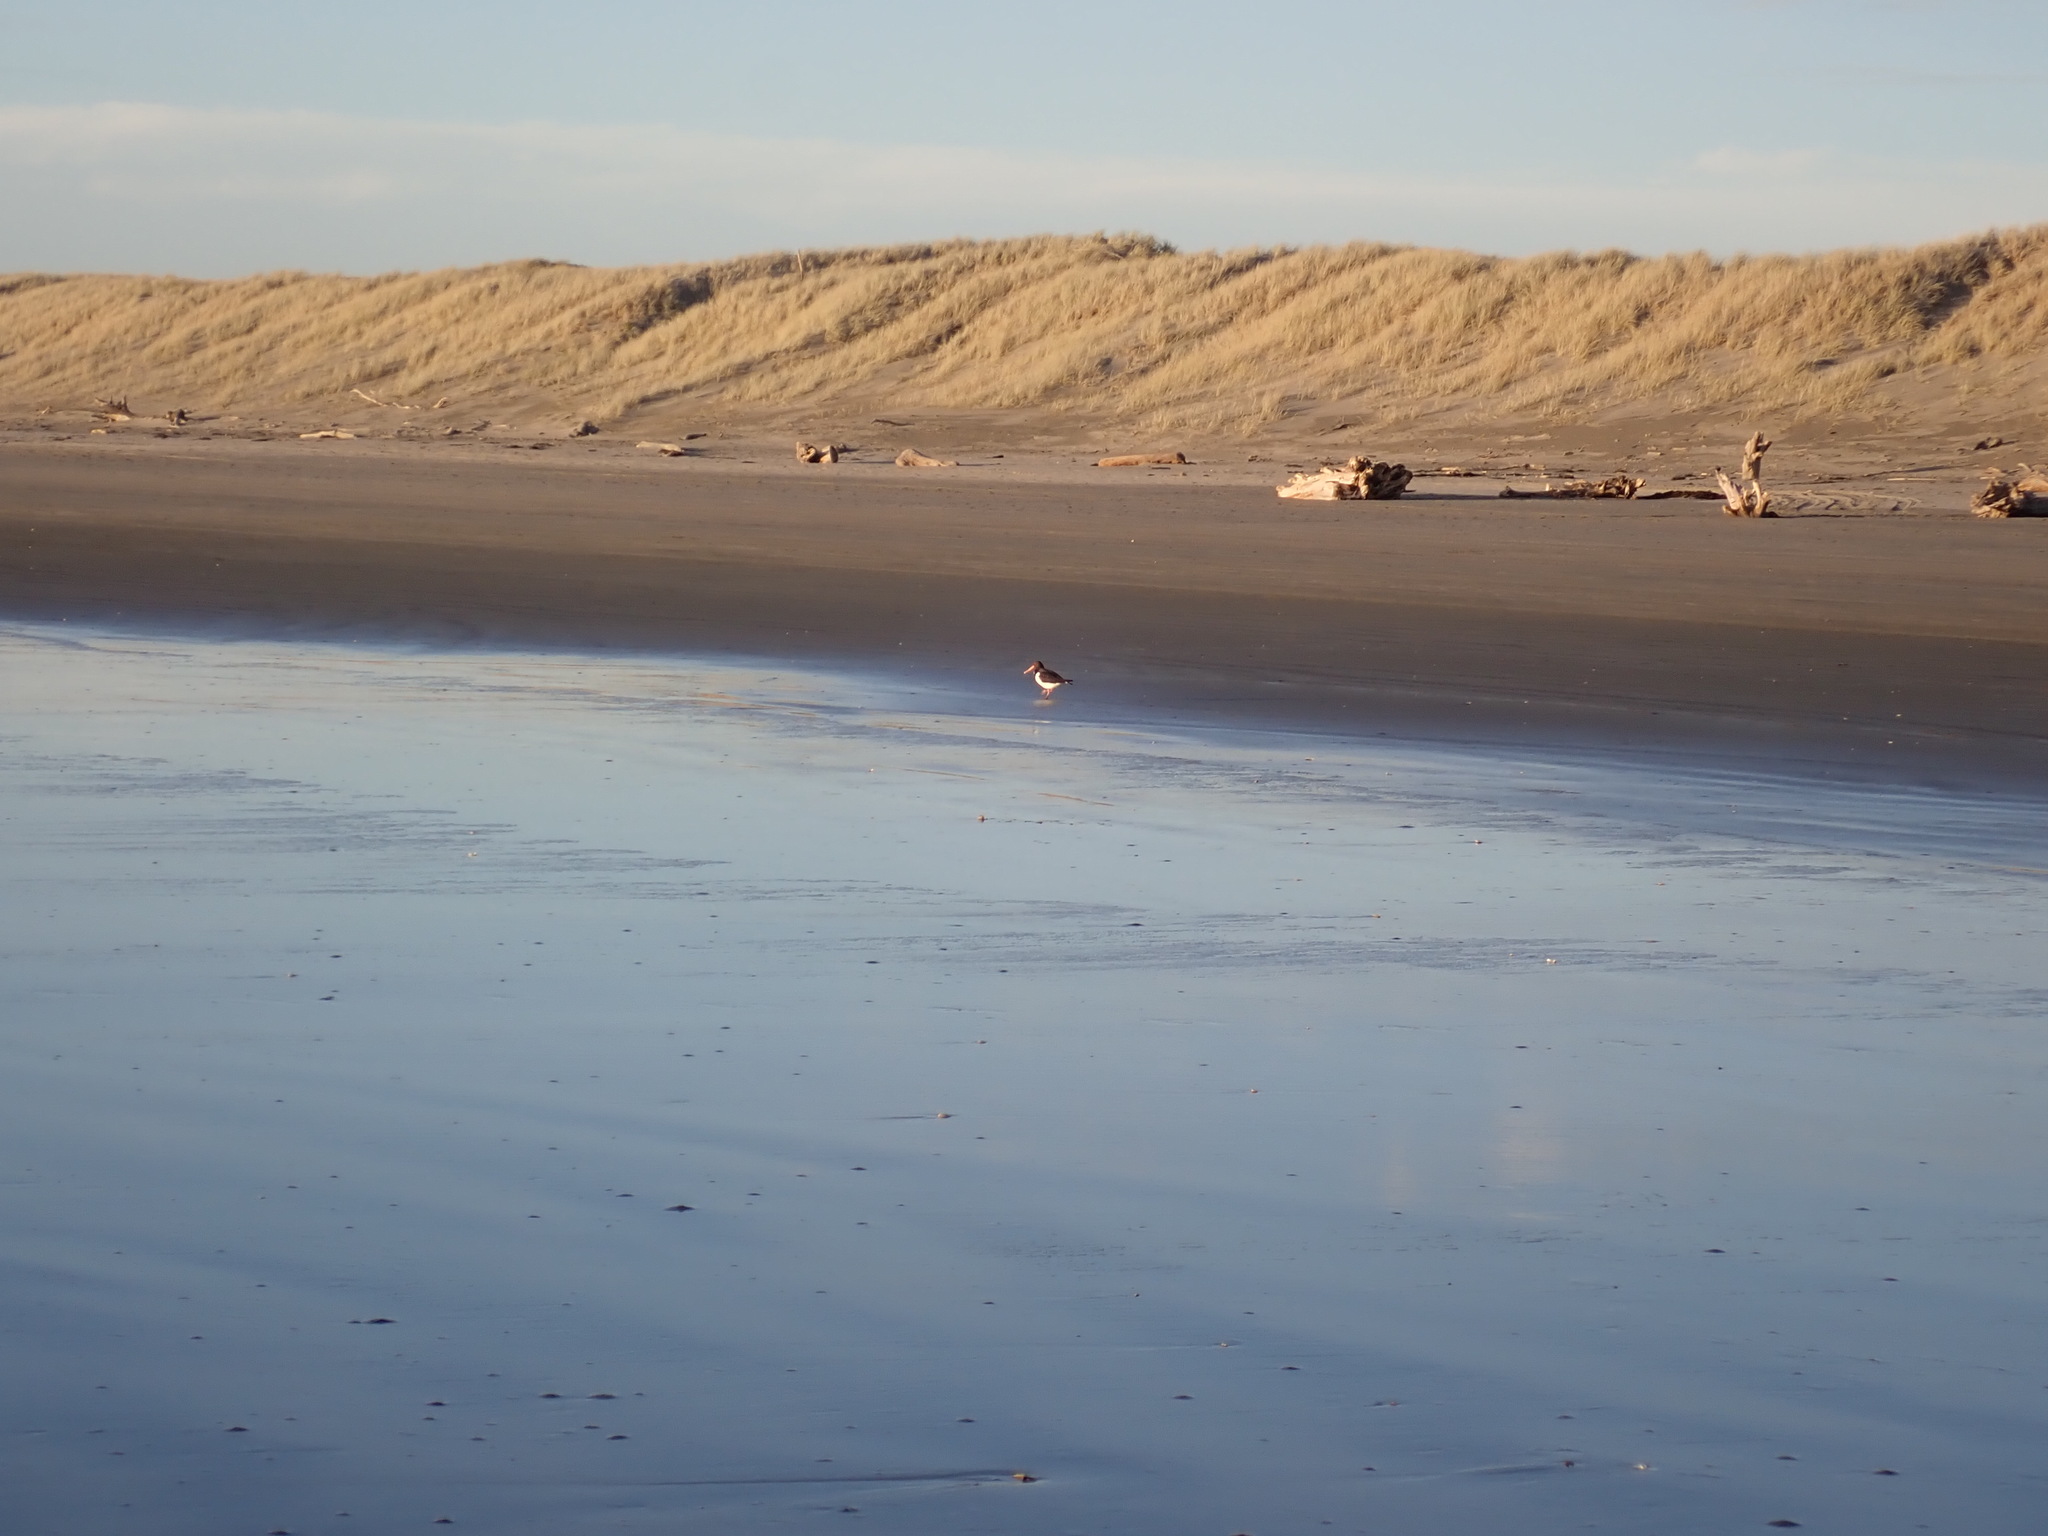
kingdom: Animalia
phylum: Chordata
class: Aves
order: Charadriiformes
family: Haematopodidae
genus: Haematopus
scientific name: Haematopus finschi
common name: South island oystercatcher
